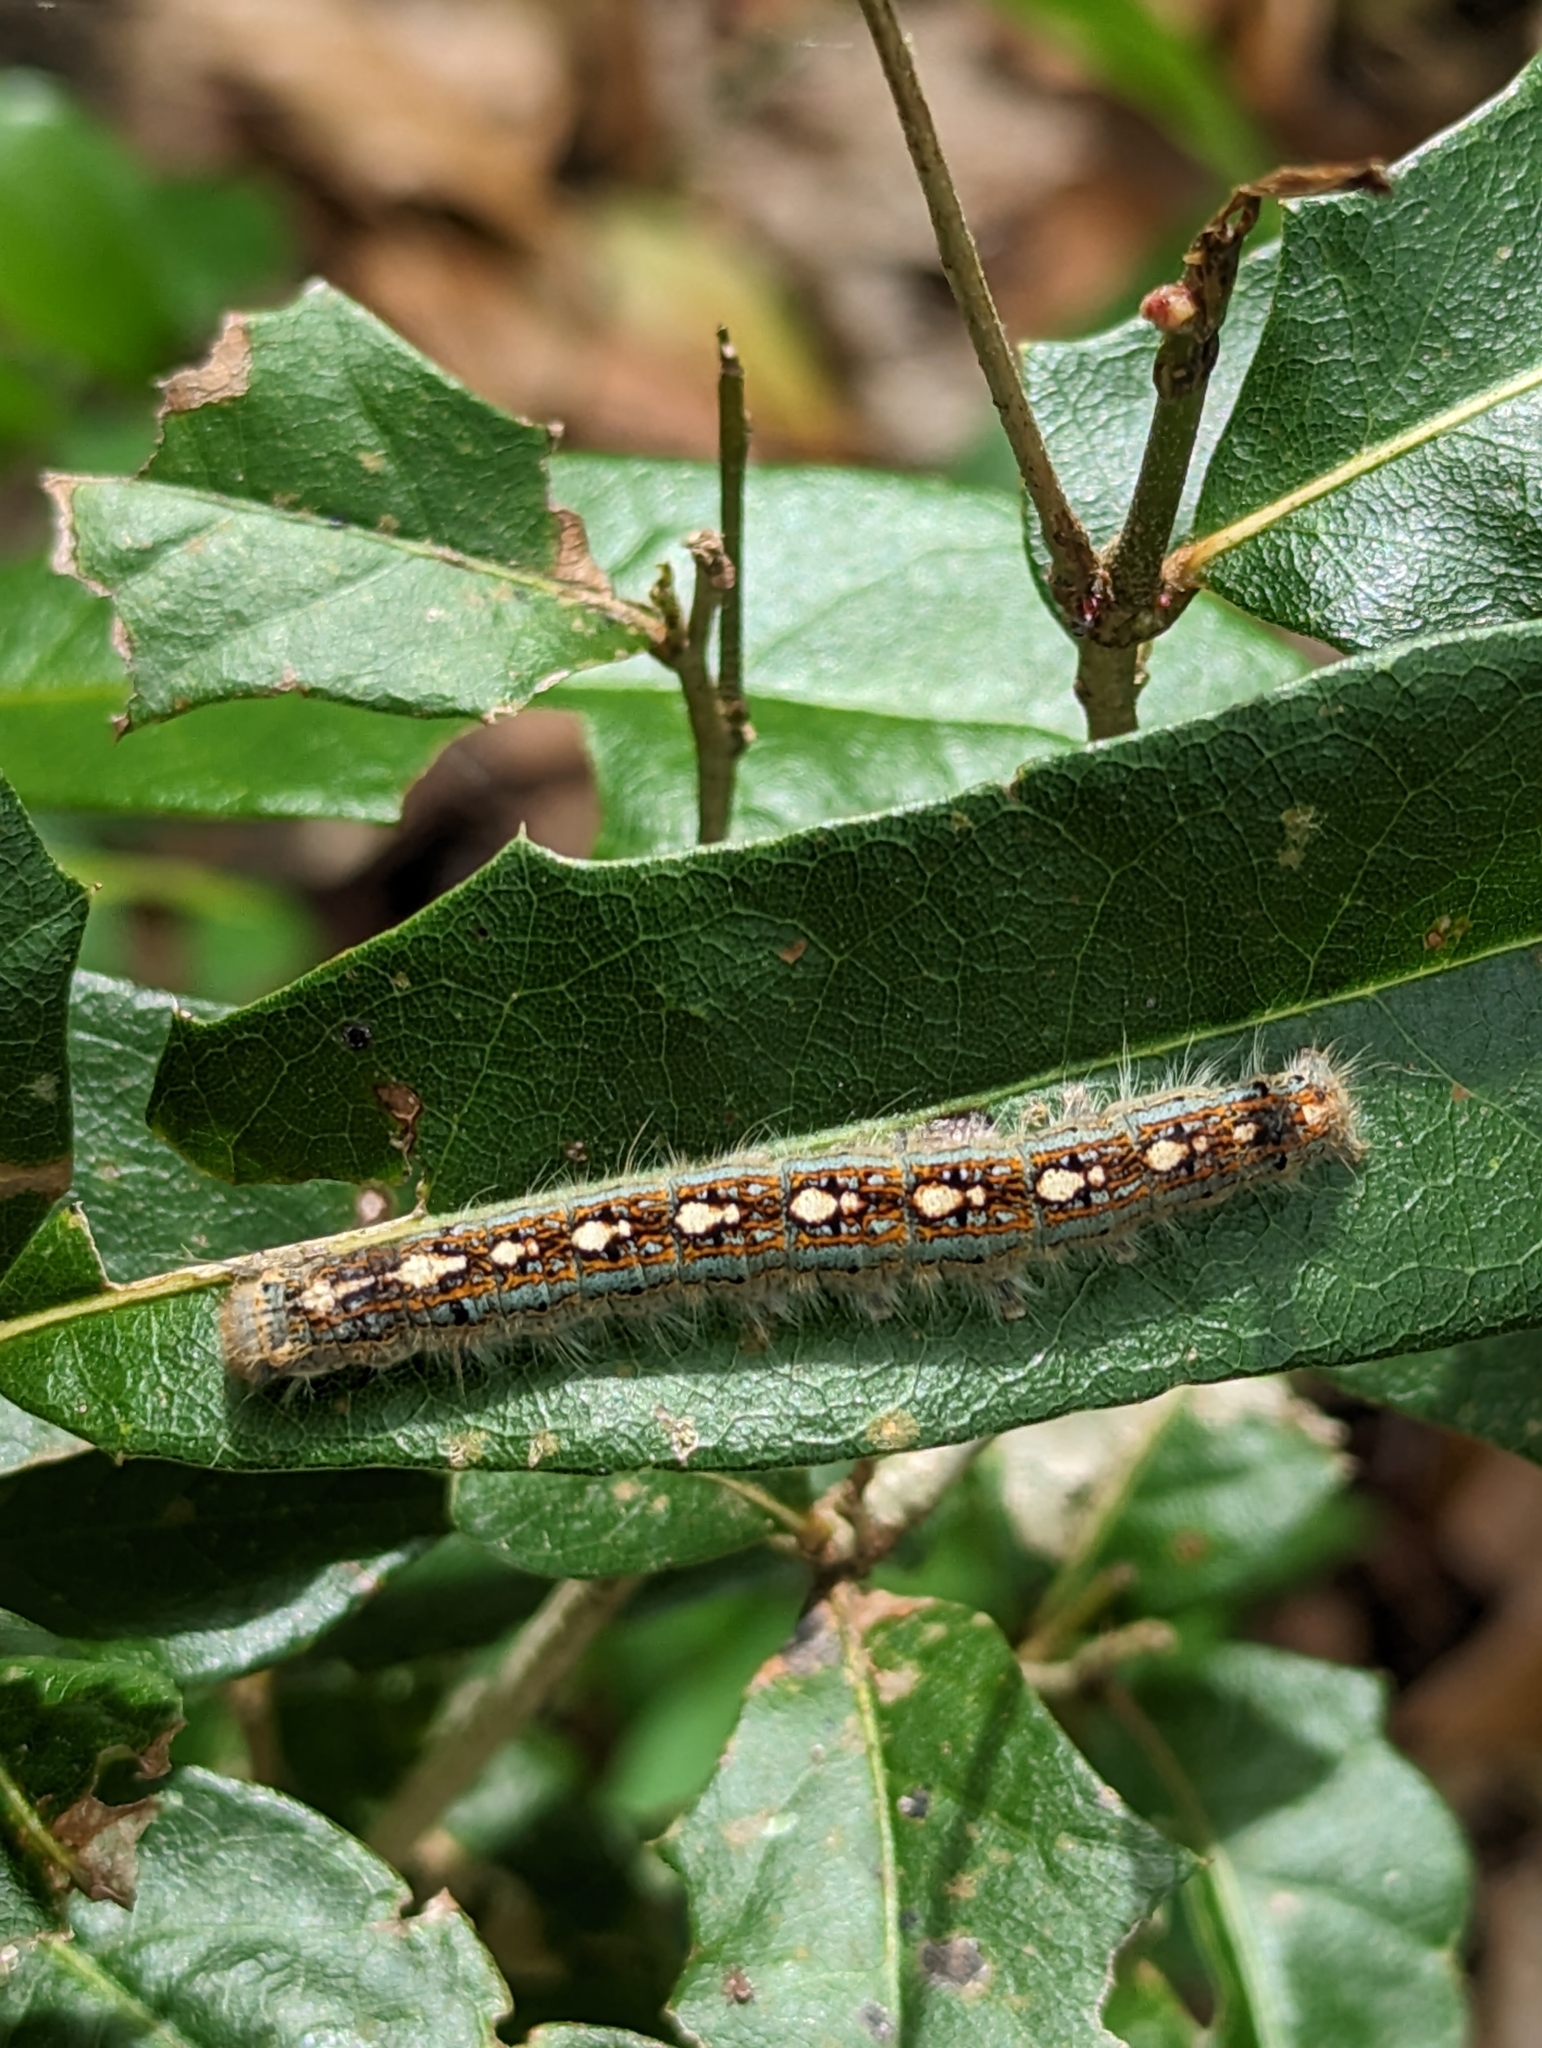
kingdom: Animalia
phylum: Arthropoda
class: Insecta
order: Lepidoptera
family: Lasiocampidae
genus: Malacosoma
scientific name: Malacosoma disstria
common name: Forest tent caterpillar
